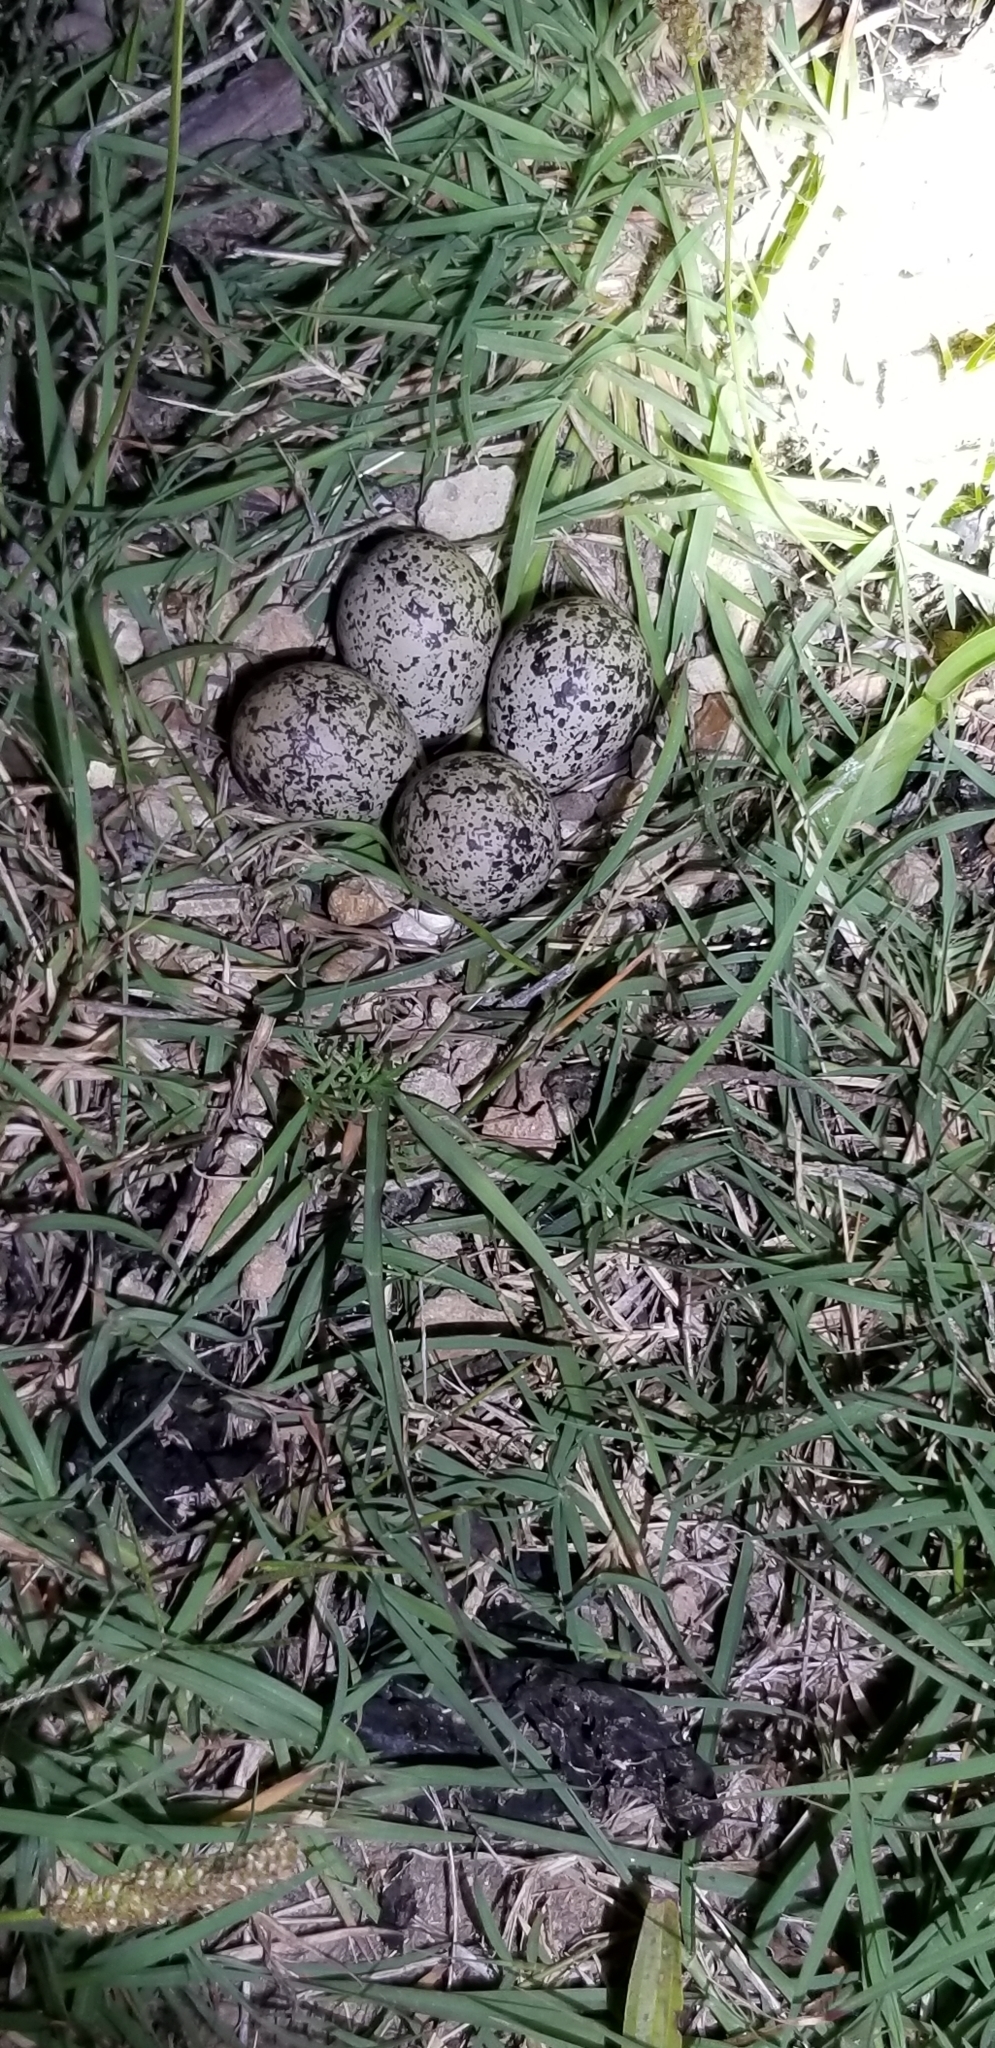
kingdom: Animalia
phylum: Chordata
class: Aves
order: Charadriiformes
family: Charadriidae
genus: Charadrius
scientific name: Charadrius vociferus
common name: Killdeer
